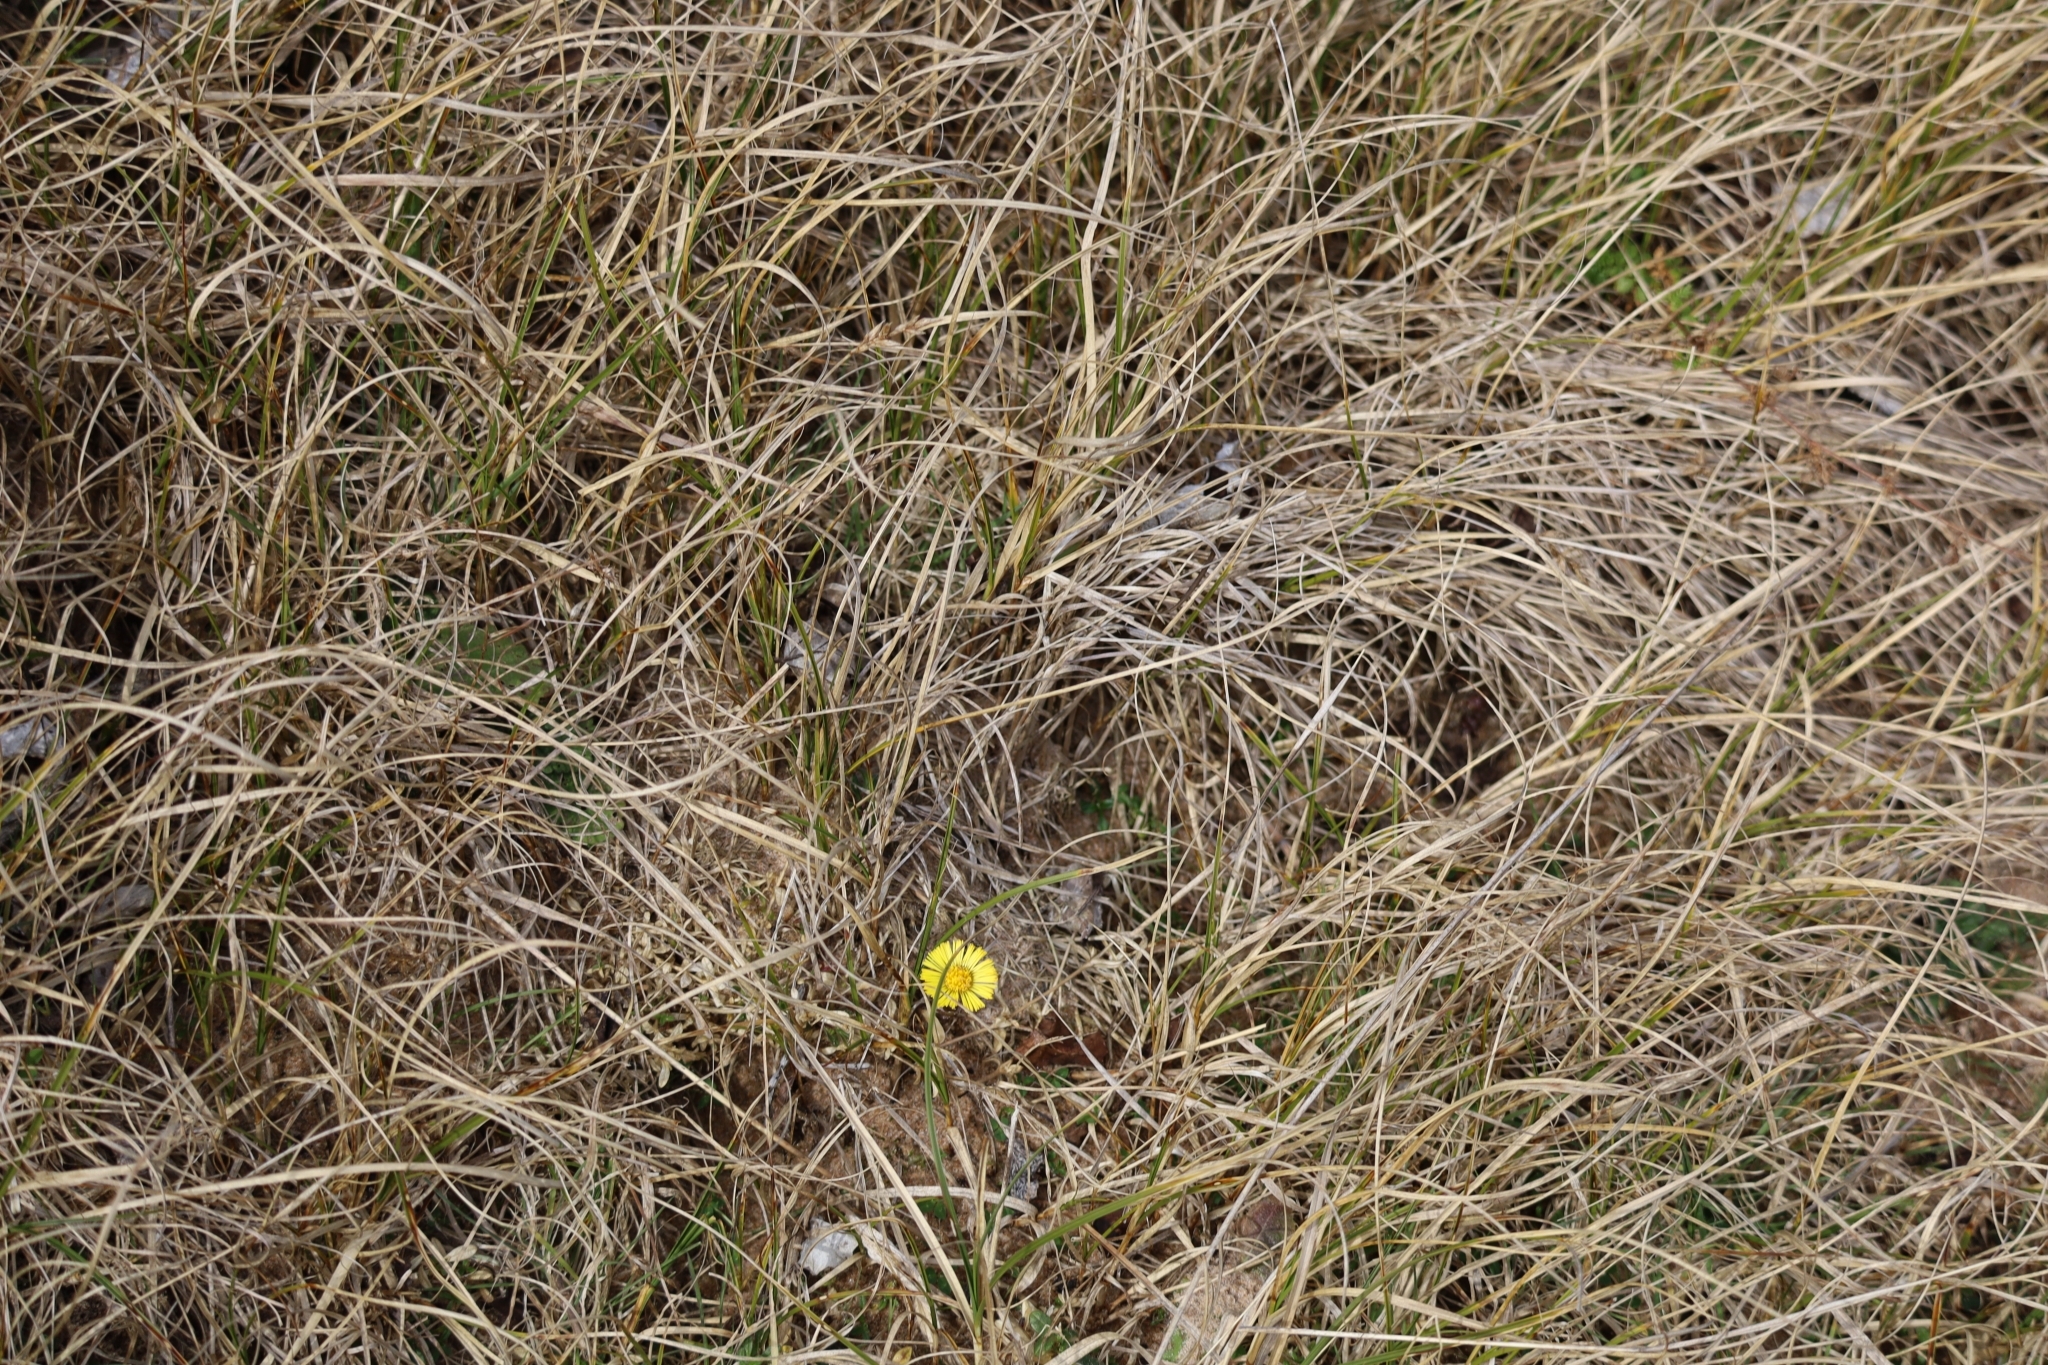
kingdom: Plantae
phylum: Tracheophyta
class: Magnoliopsida
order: Asterales
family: Asteraceae
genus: Tussilago
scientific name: Tussilago farfara
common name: Coltsfoot
